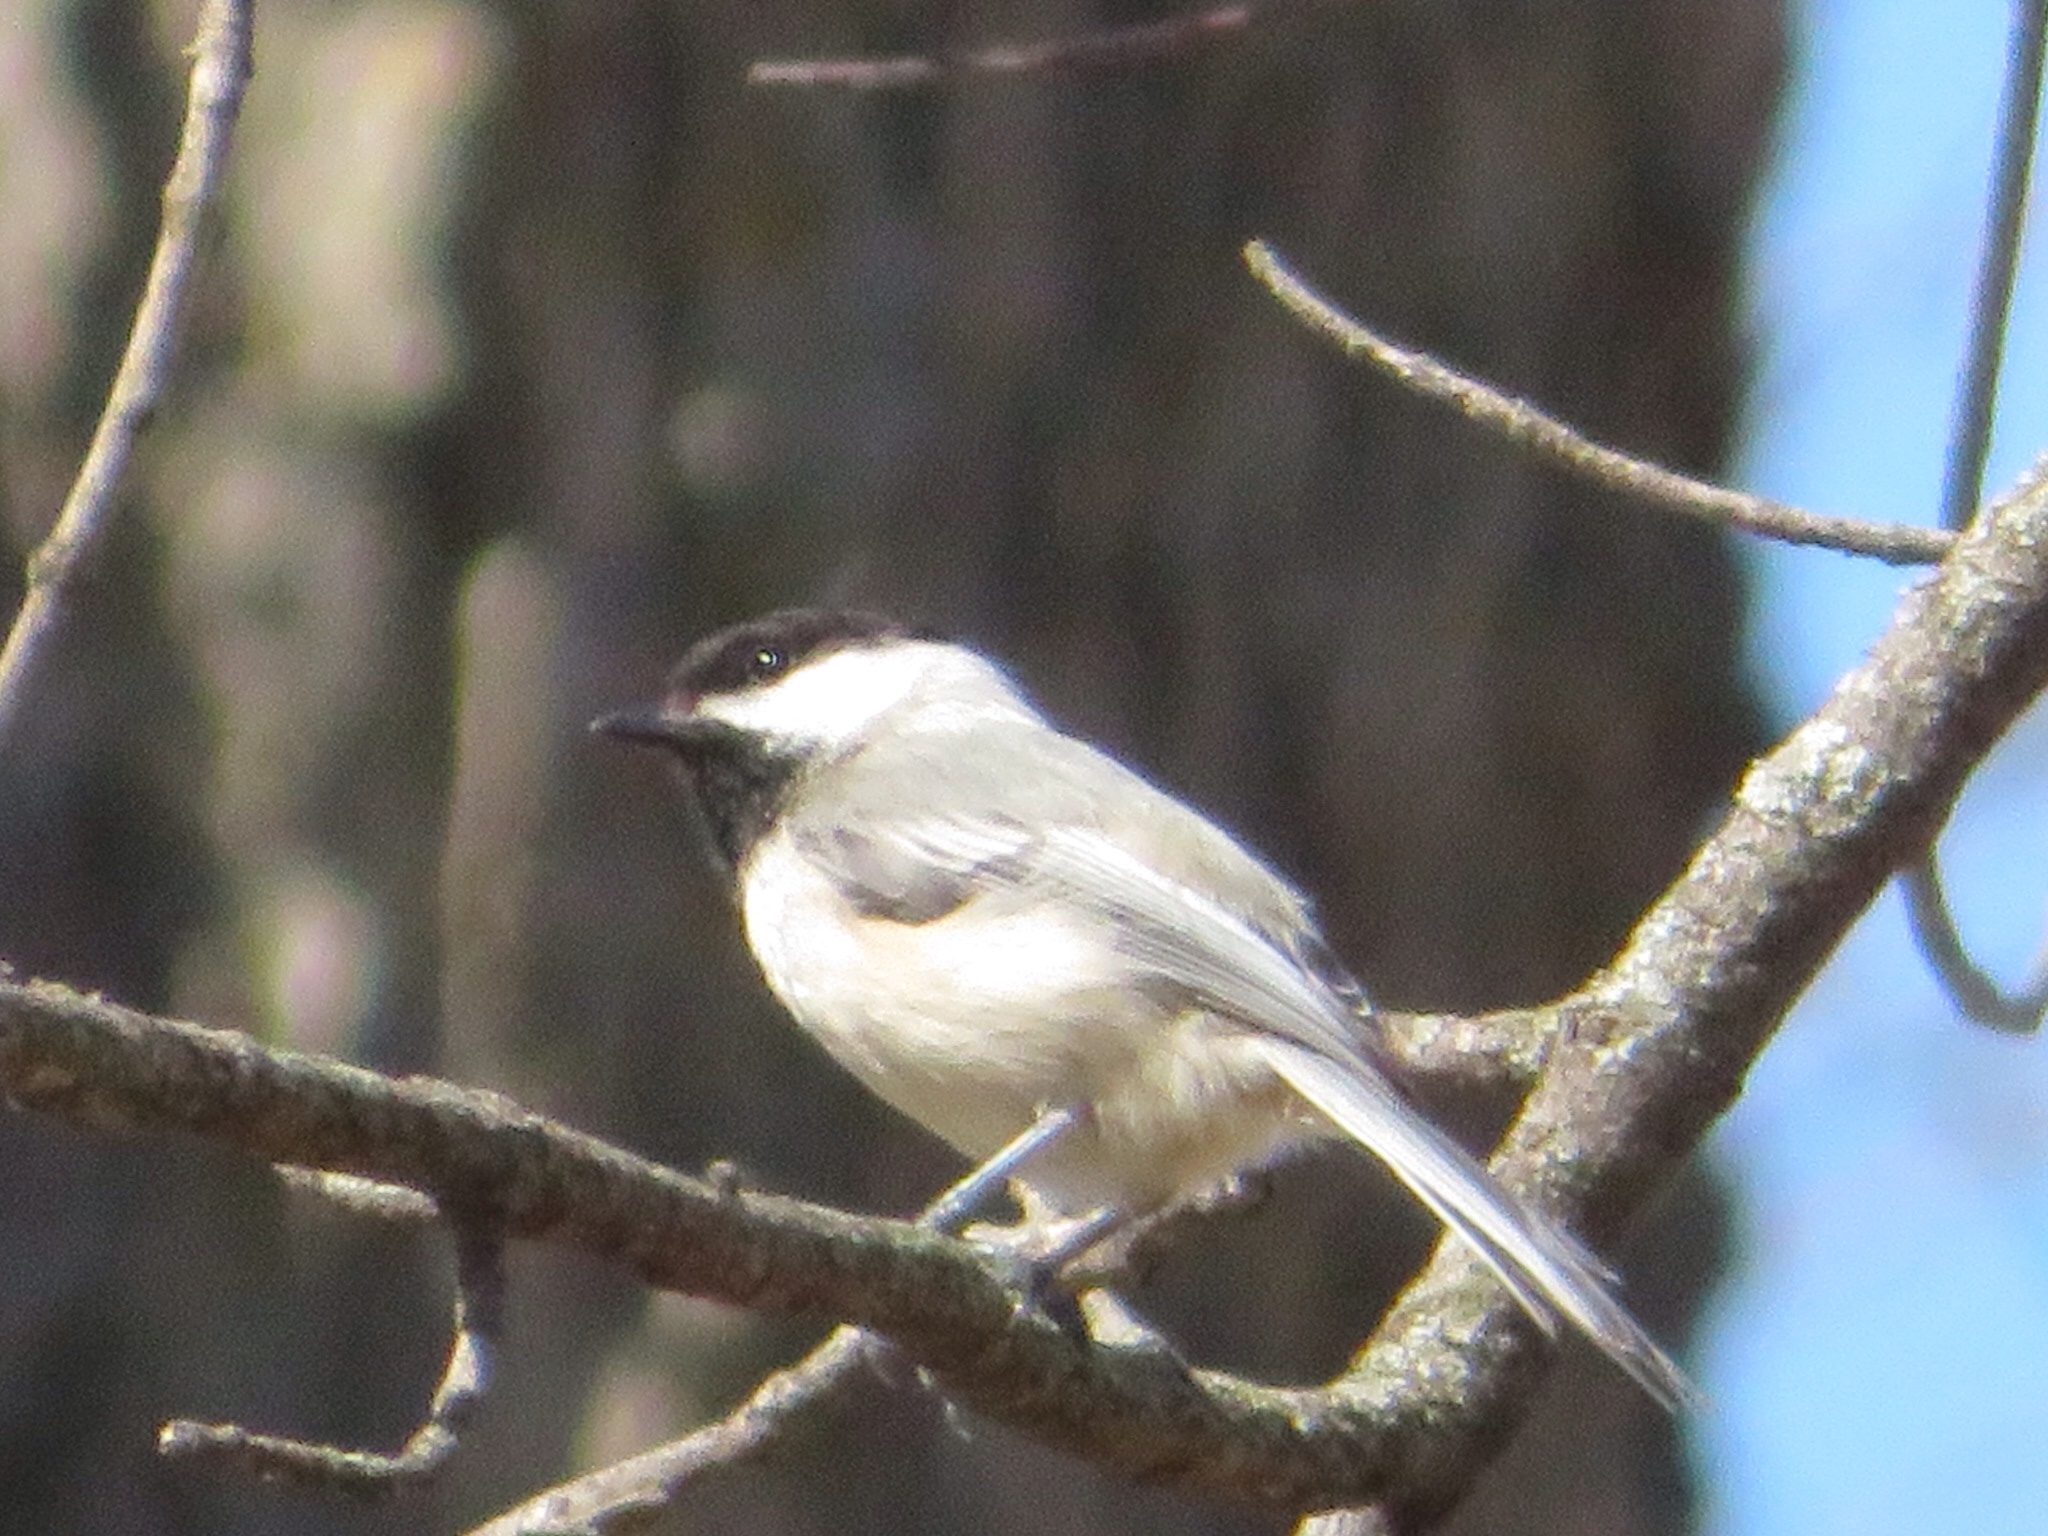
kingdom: Animalia
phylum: Chordata
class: Aves
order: Passeriformes
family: Paridae
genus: Poecile
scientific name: Poecile atricapillus
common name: Black-capped chickadee
